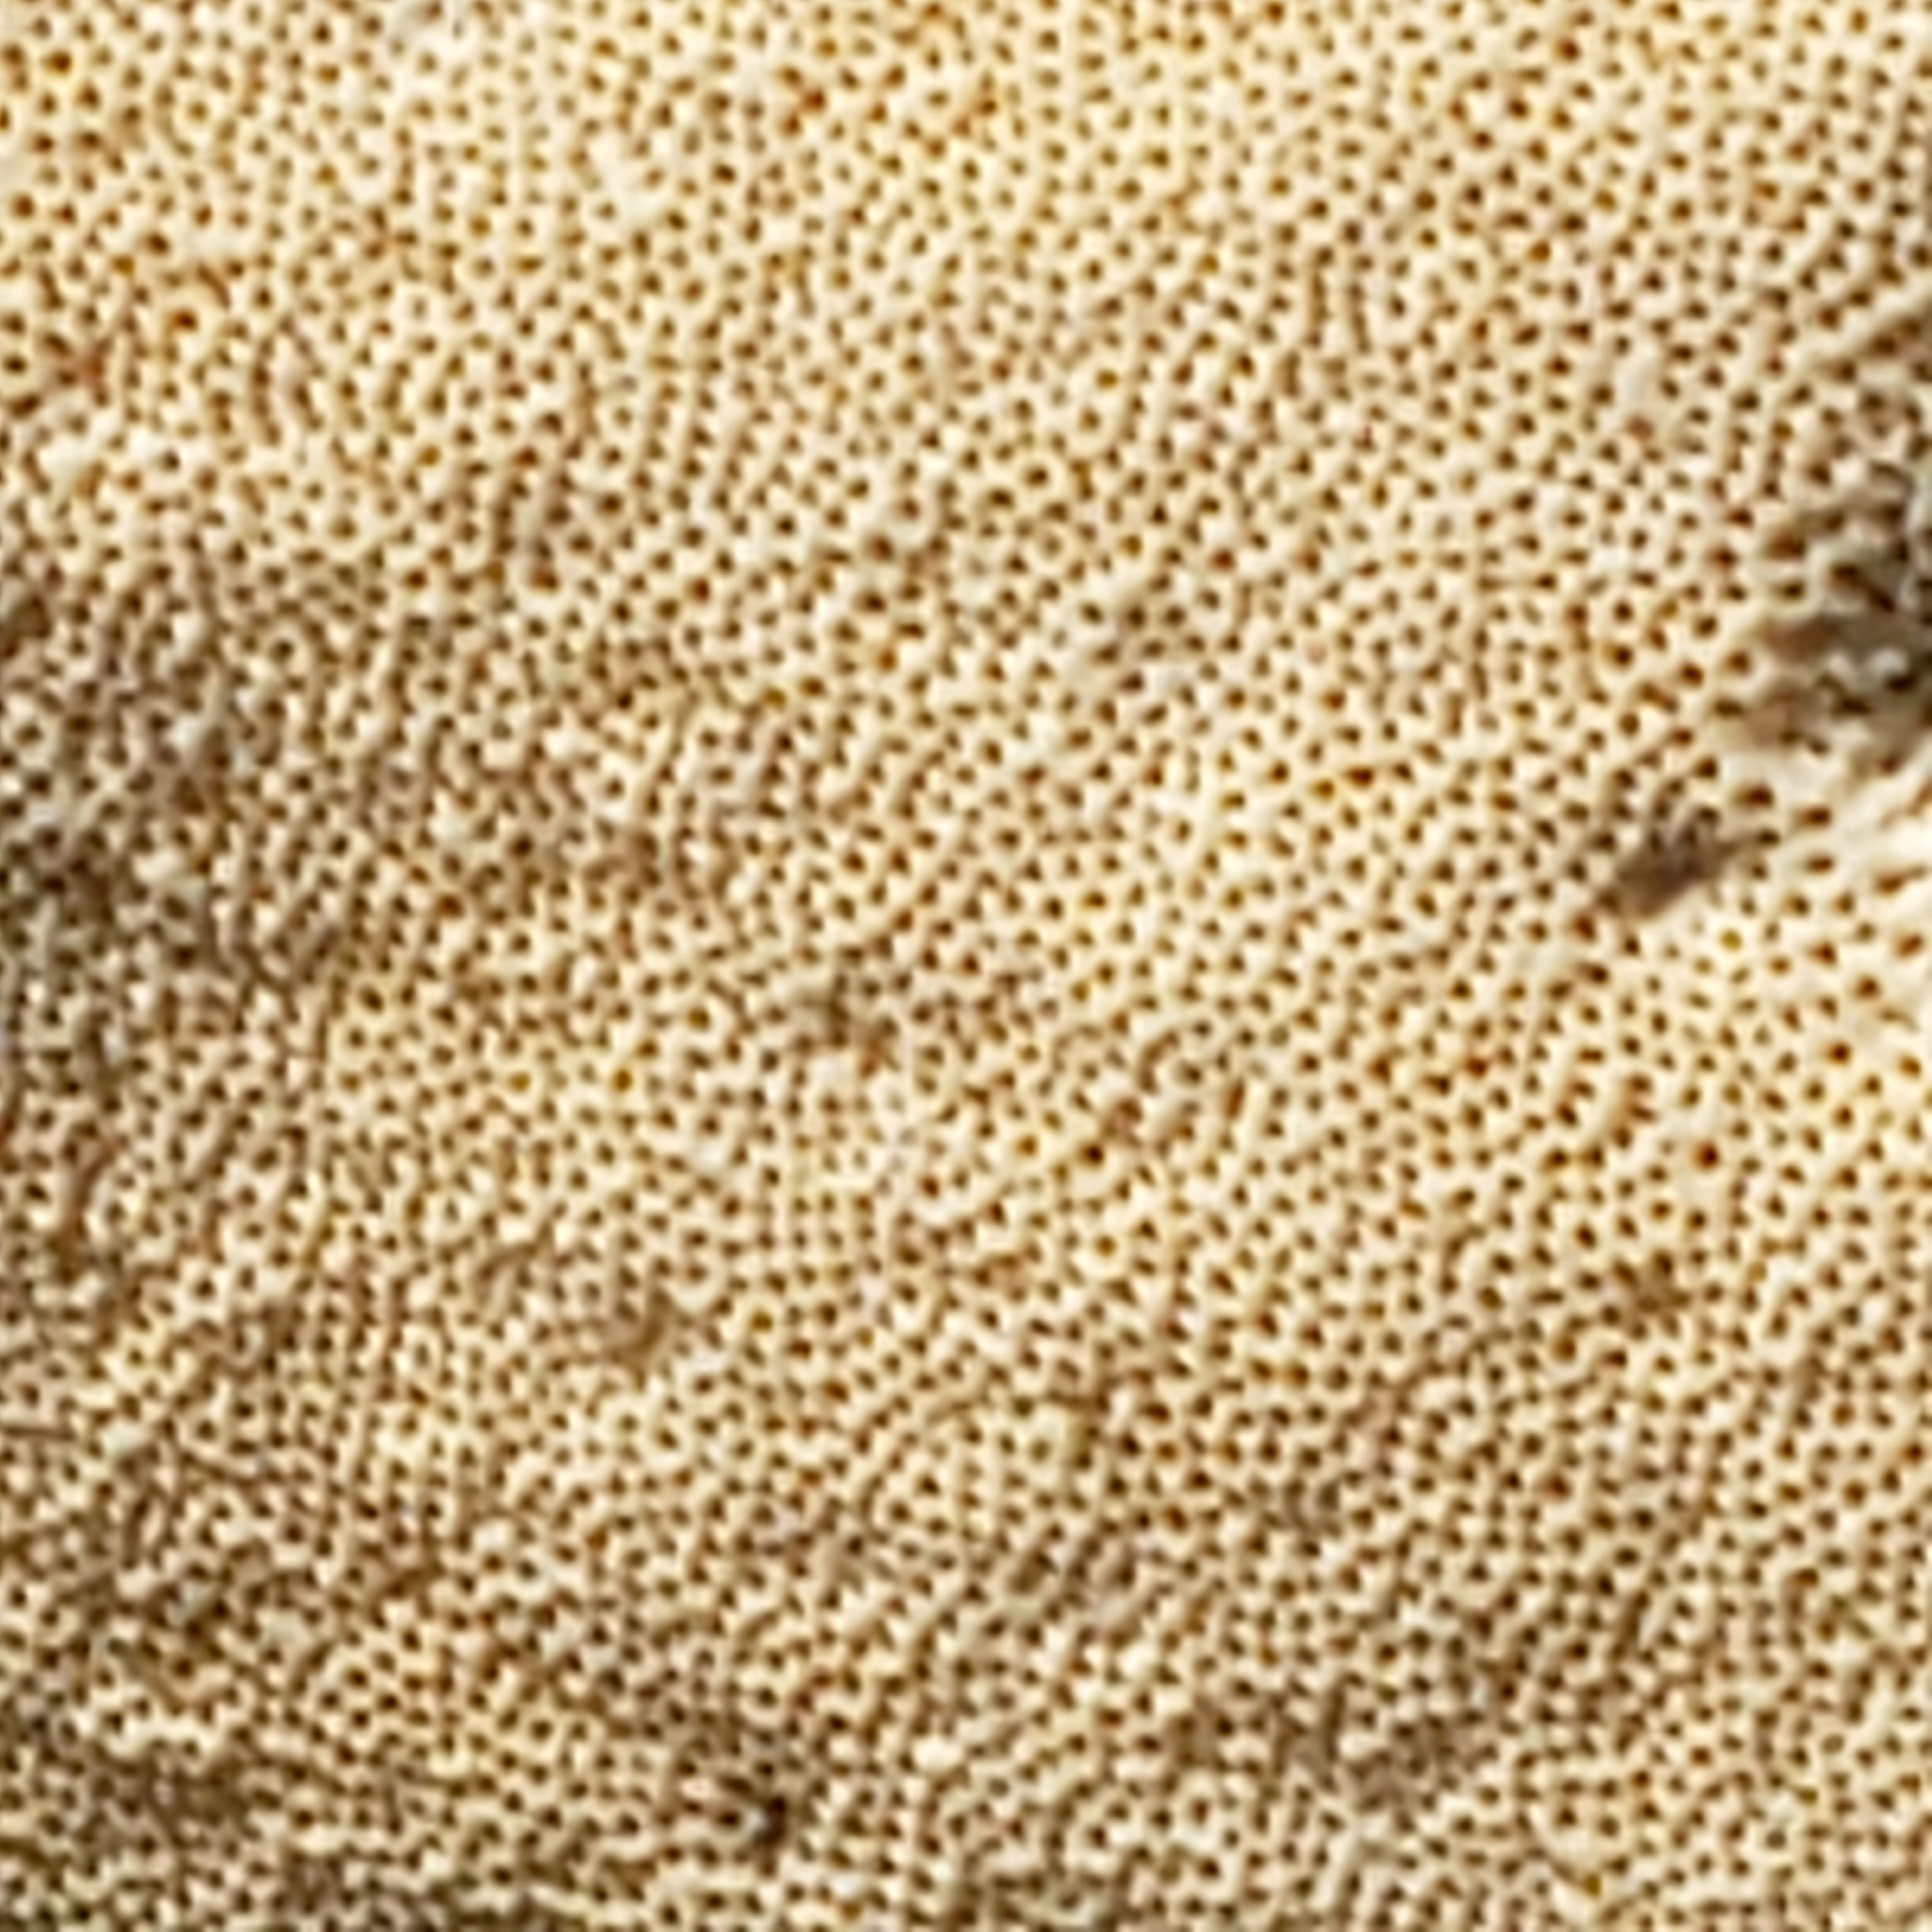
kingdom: Fungi
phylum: Basidiomycota
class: Agaricomycetes
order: Polyporales
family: Polyporaceae
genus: Cerioporus
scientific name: Cerioporus varius
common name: Elegant polypore
